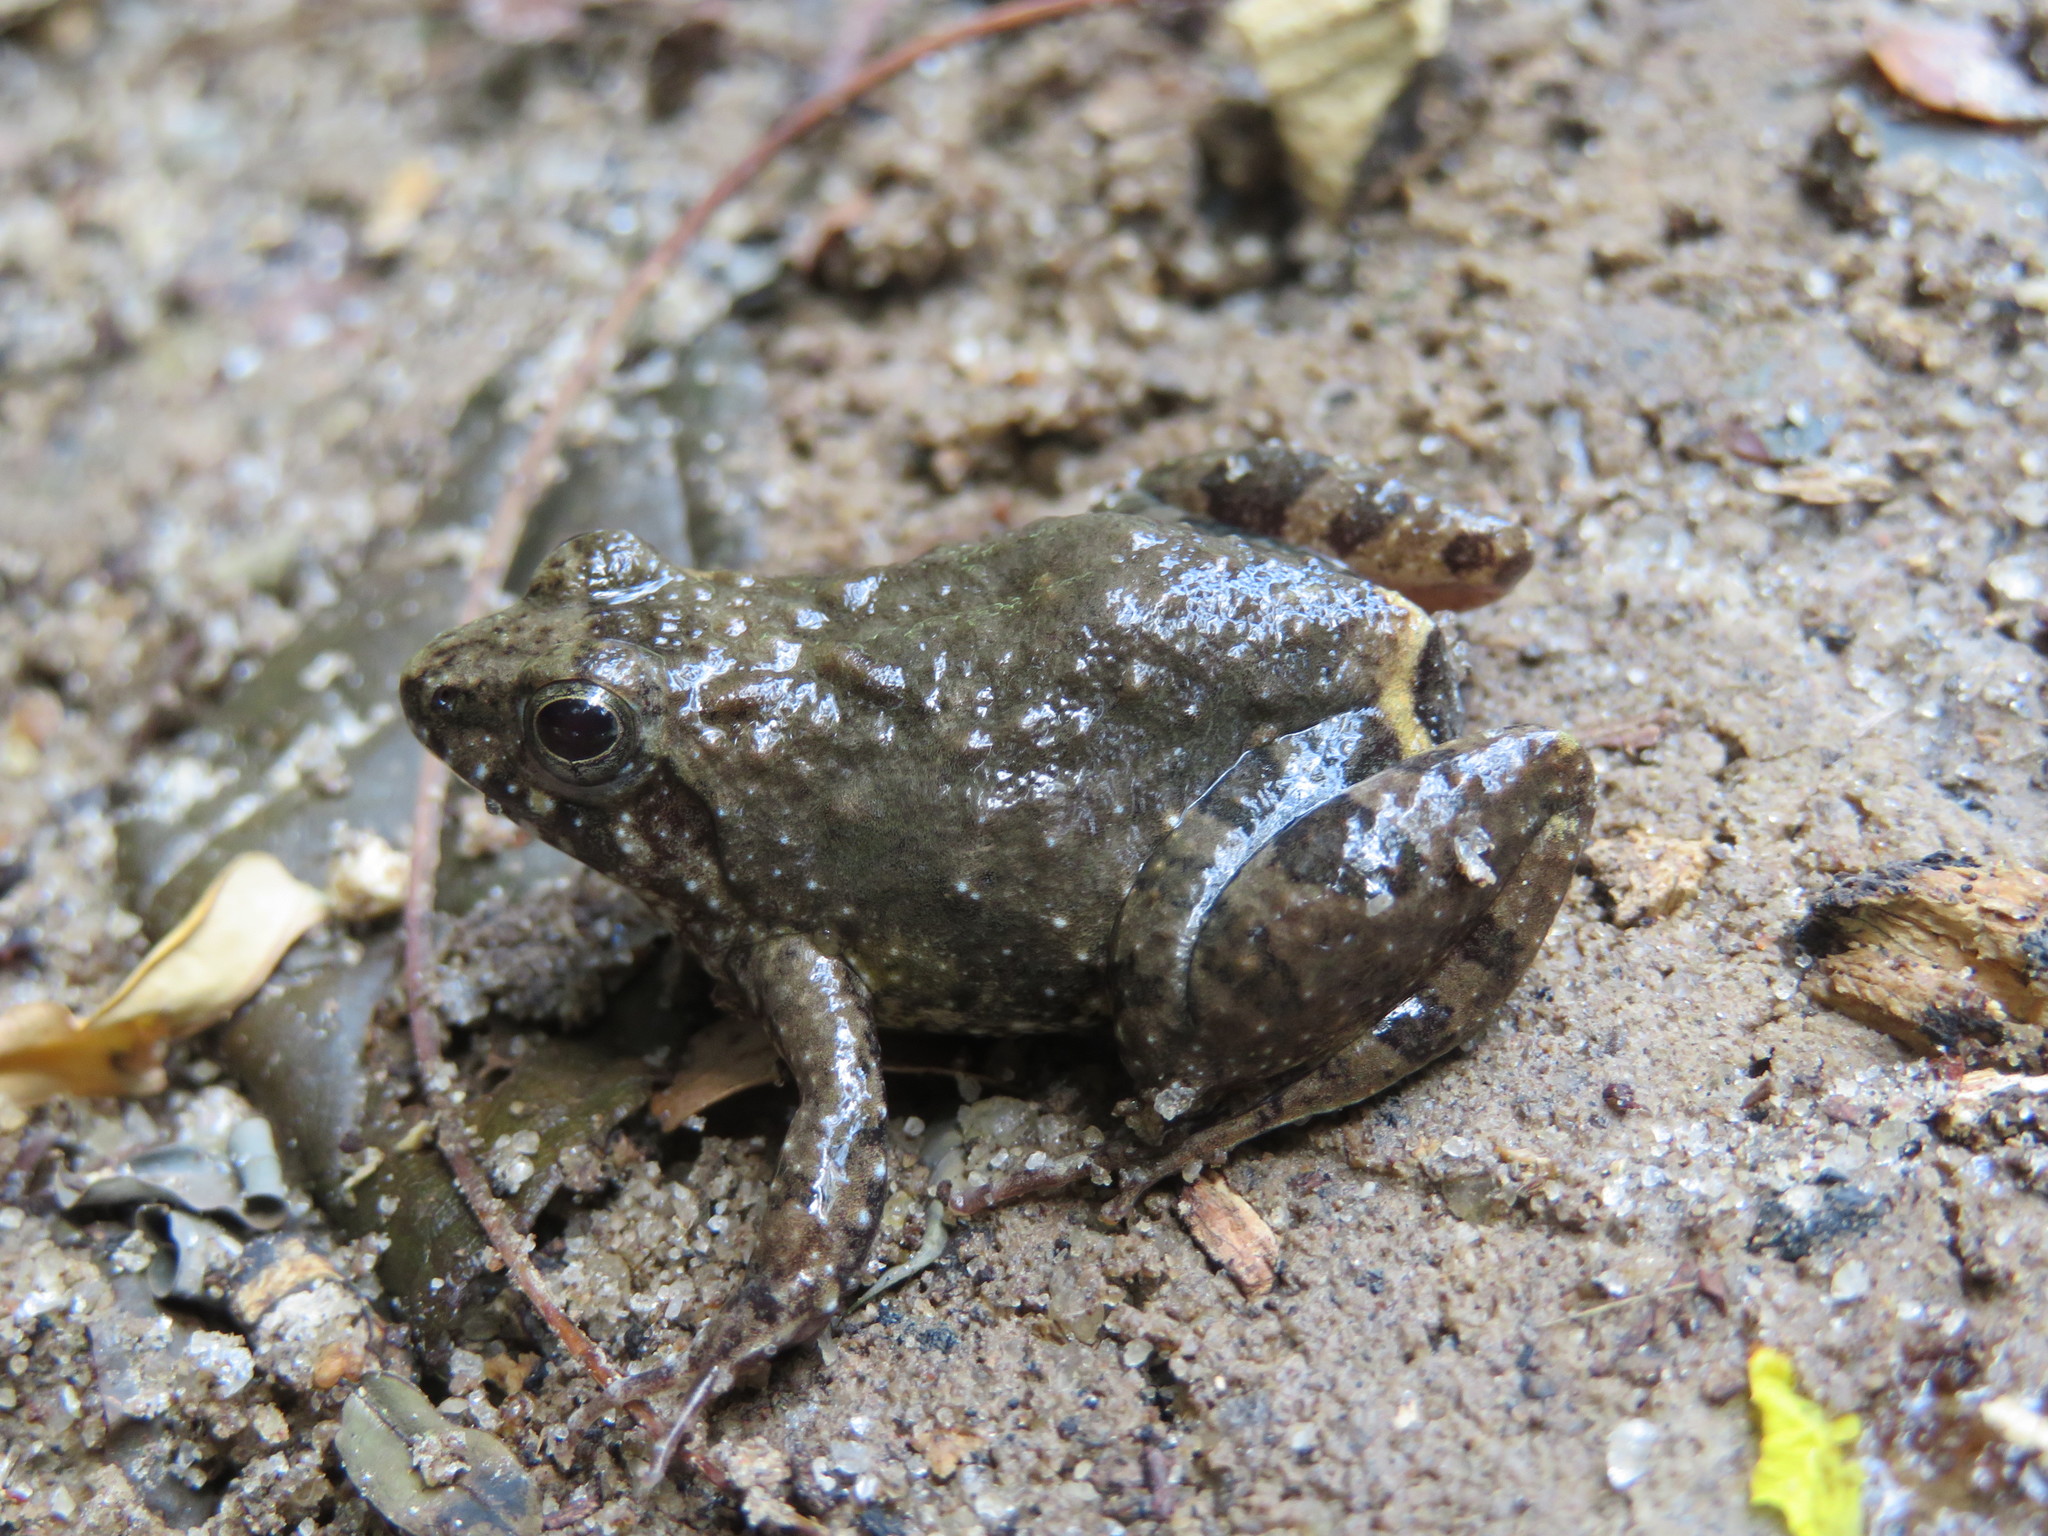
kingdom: Animalia
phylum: Chordata
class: Amphibia
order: Anura
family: Phrynobatrachidae
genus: Phrynobatrachus
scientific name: Phrynobatrachus natalensis
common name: Snoring puddle frog
